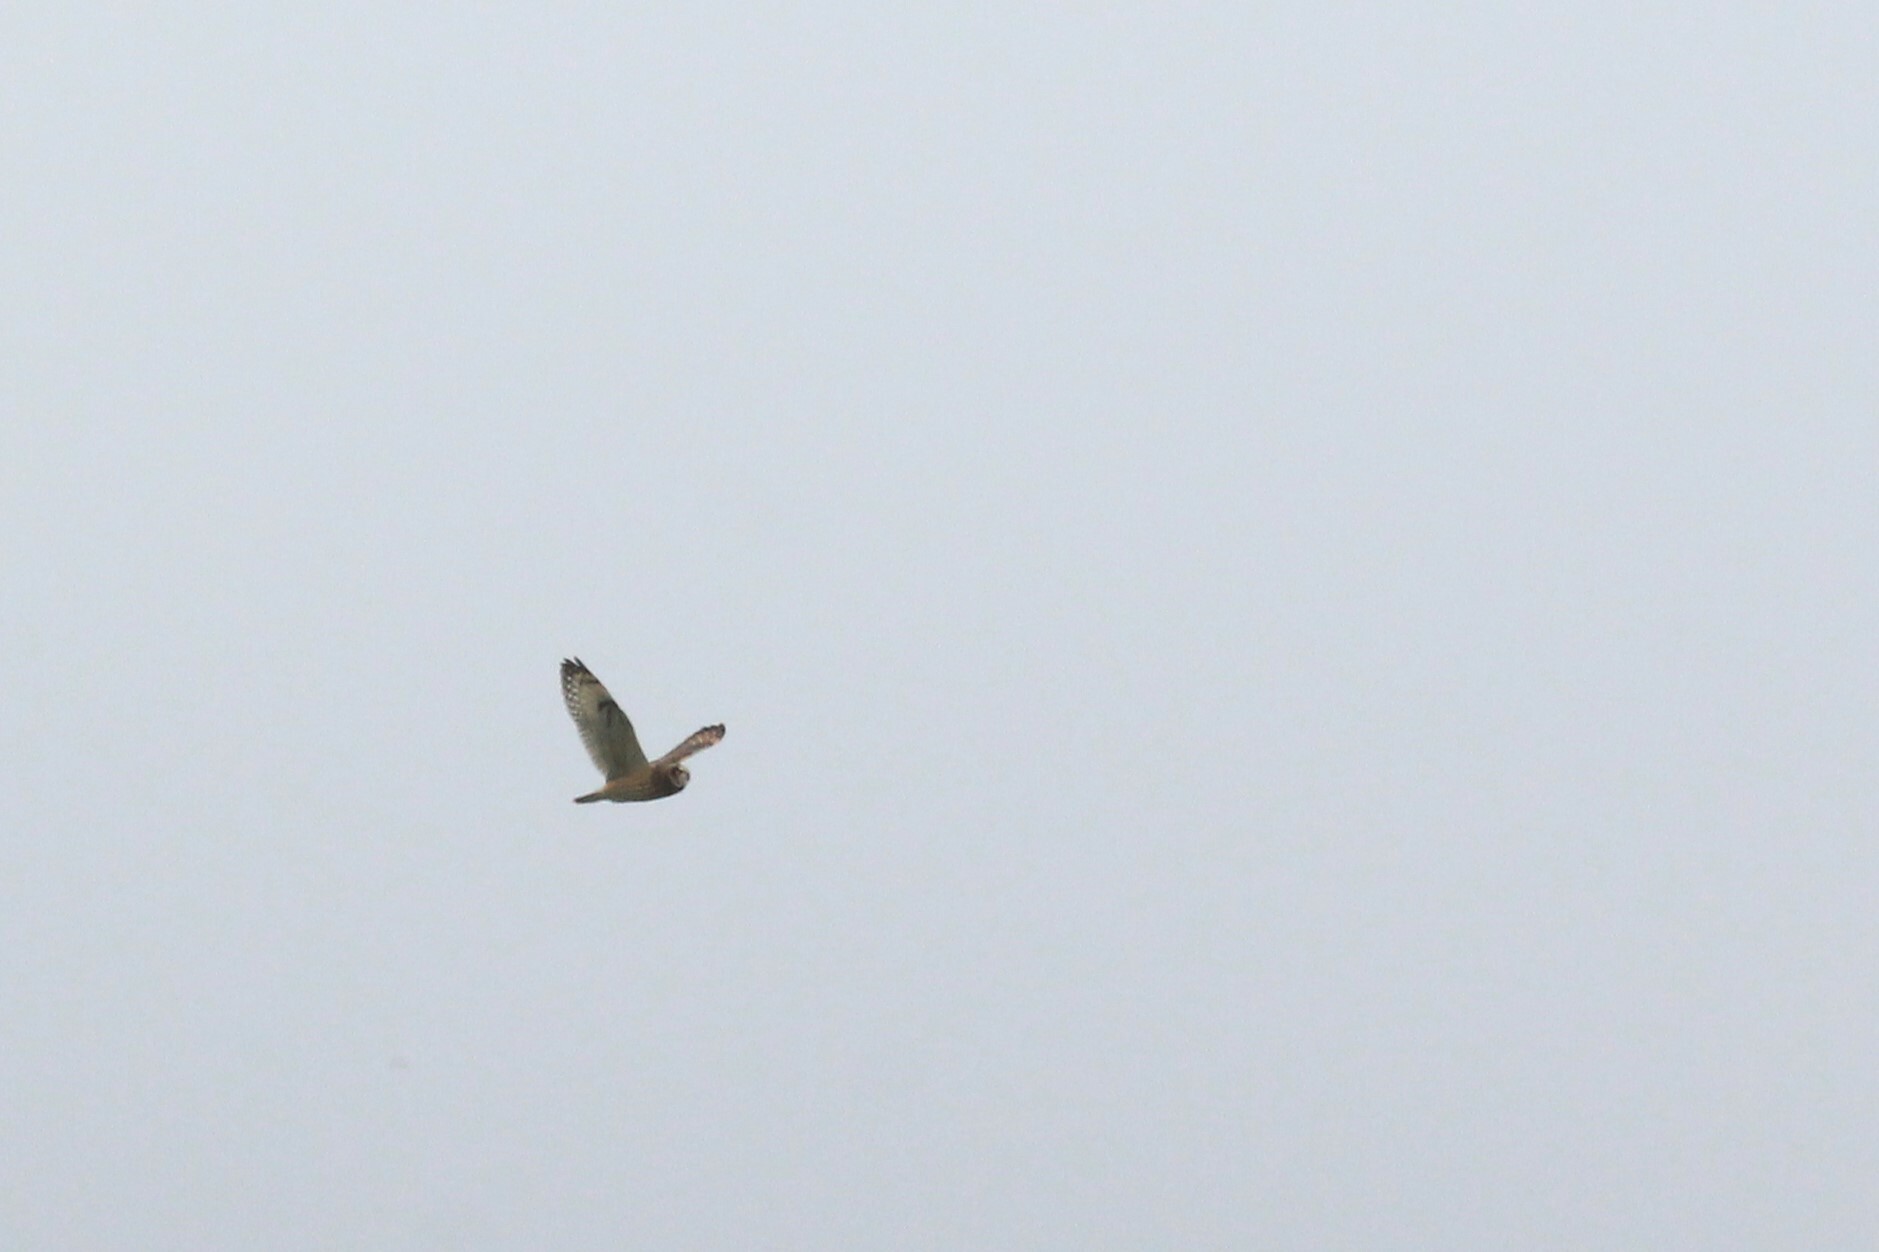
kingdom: Animalia
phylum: Chordata
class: Aves
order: Strigiformes
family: Strigidae
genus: Asio
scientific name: Asio flammeus
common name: Short-eared owl
